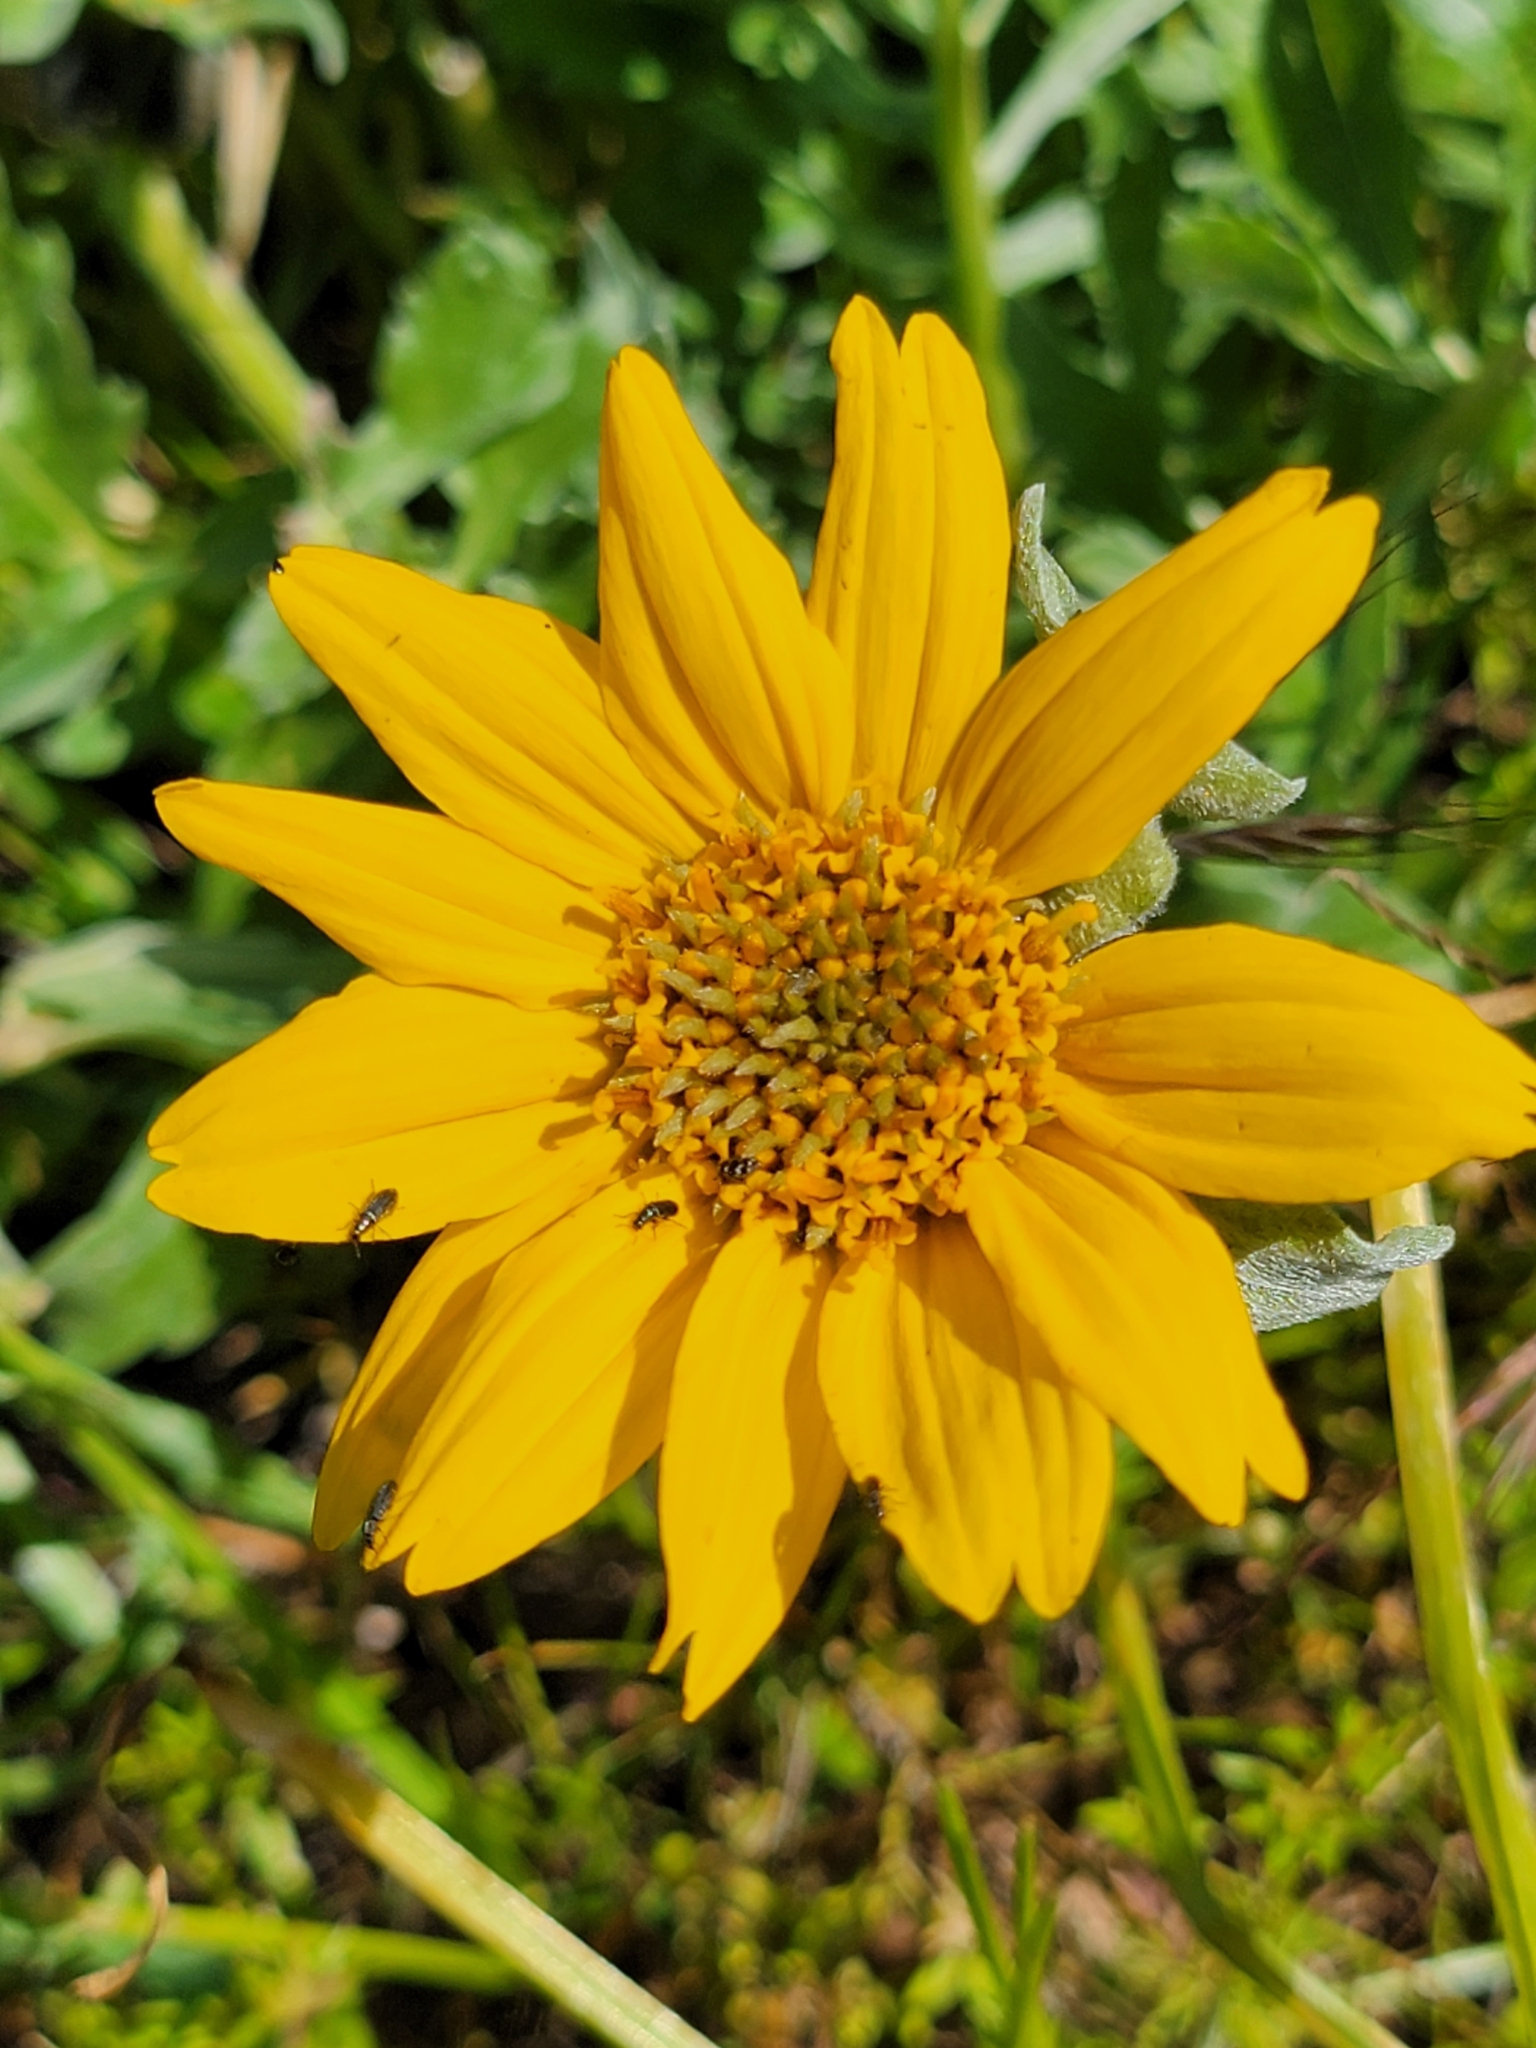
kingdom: Plantae
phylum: Tracheophyta
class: Magnoliopsida
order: Asterales
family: Asteraceae
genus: Balsamorhiza
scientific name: Balsamorhiza macrolepis
